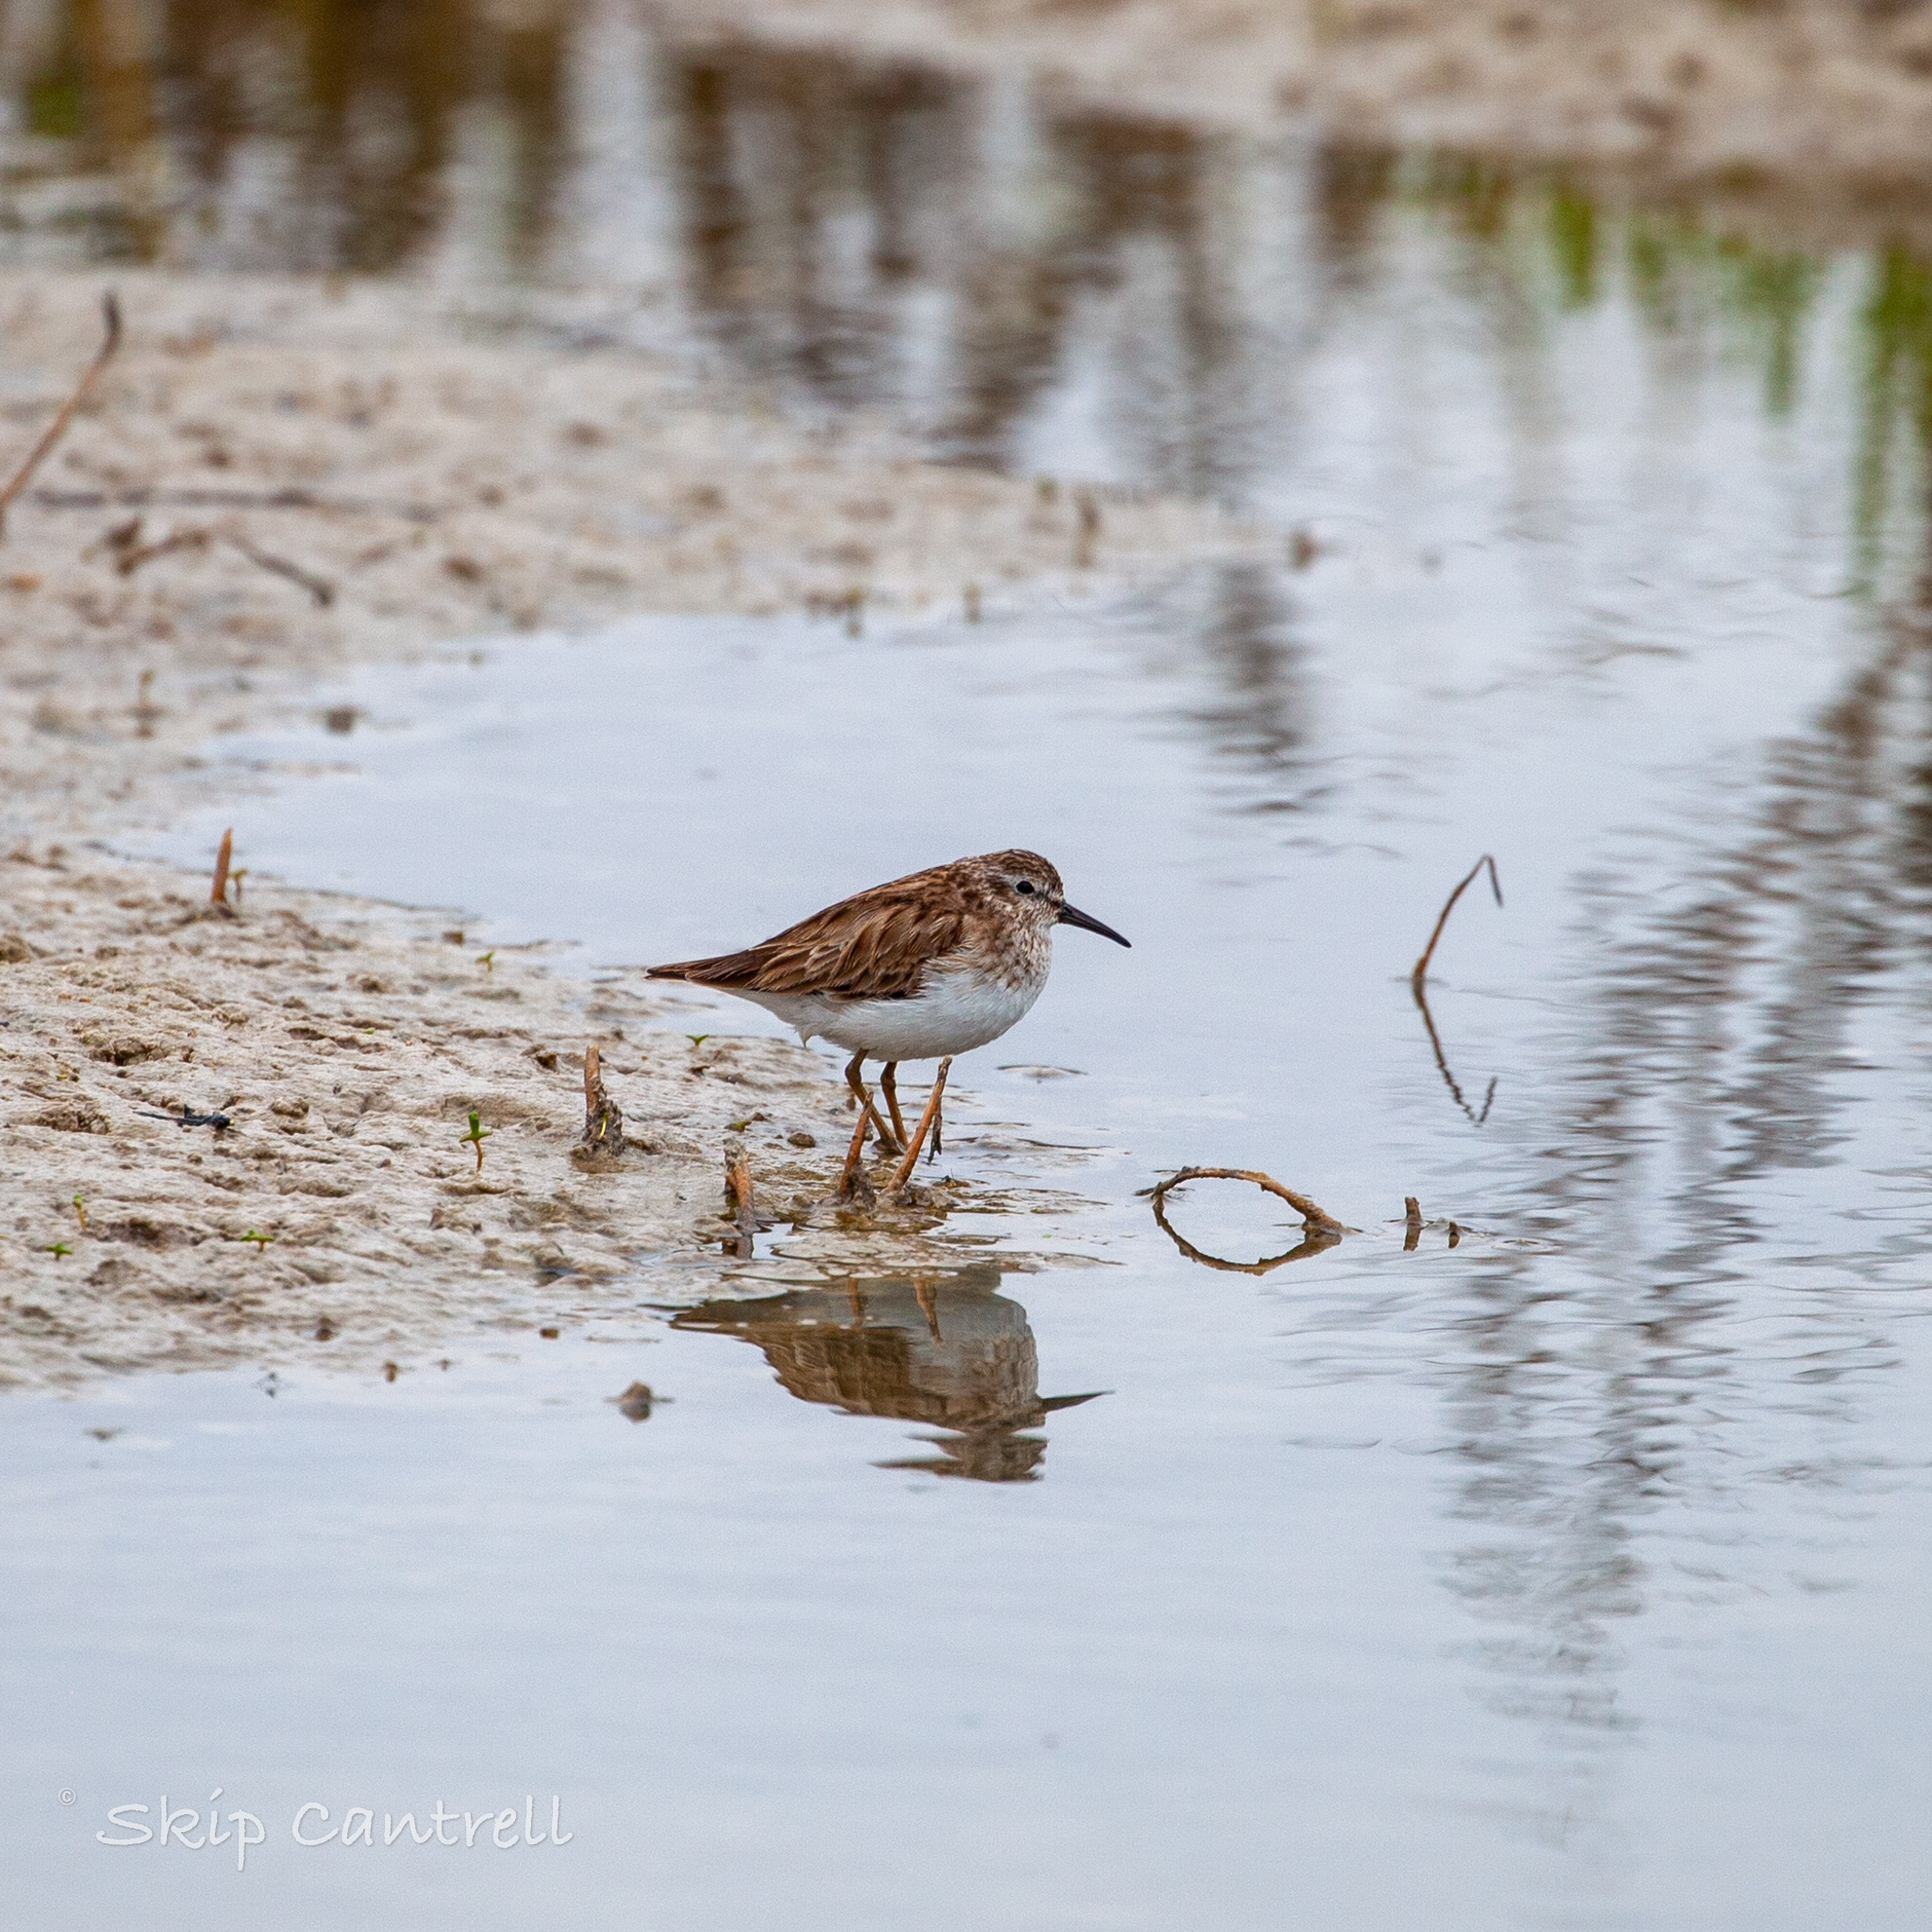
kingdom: Animalia
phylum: Chordata
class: Aves
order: Charadriiformes
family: Scolopacidae
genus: Calidris
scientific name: Calidris minutilla
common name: Least sandpiper
